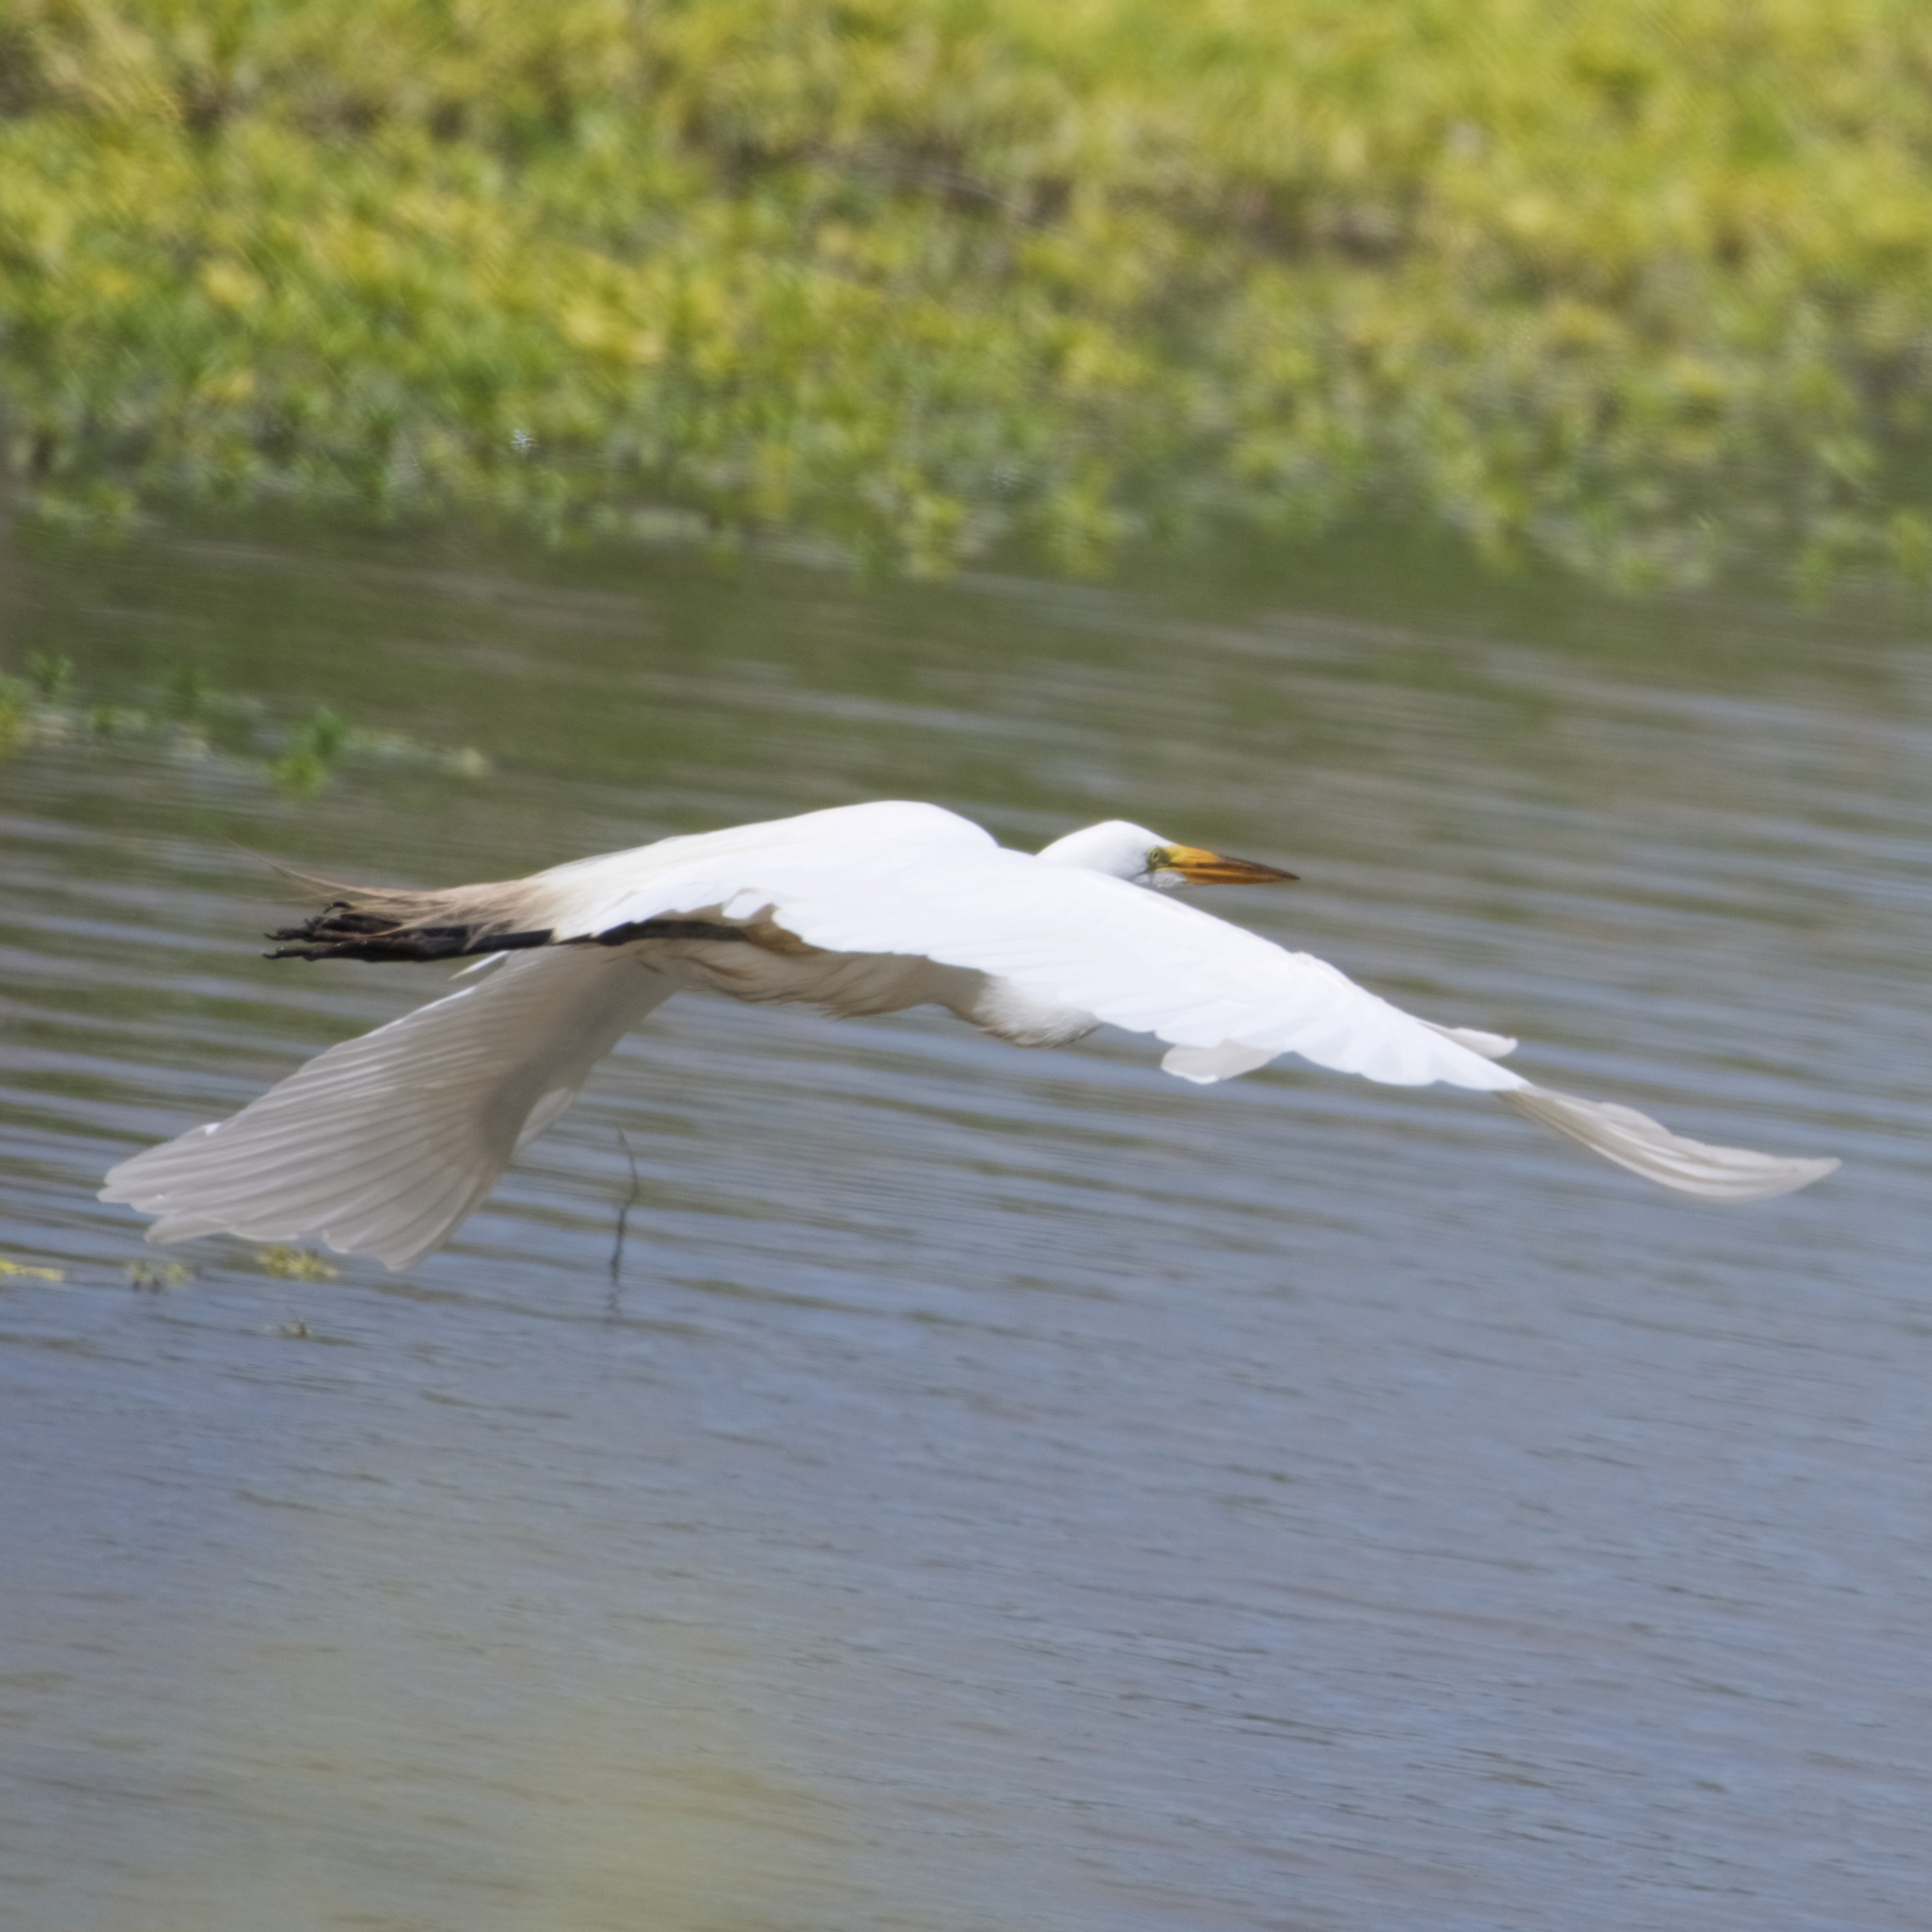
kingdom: Animalia
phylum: Chordata
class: Aves
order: Pelecaniformes
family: Ardeidae
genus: Ardea
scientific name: Ardea alba
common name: Great egret
